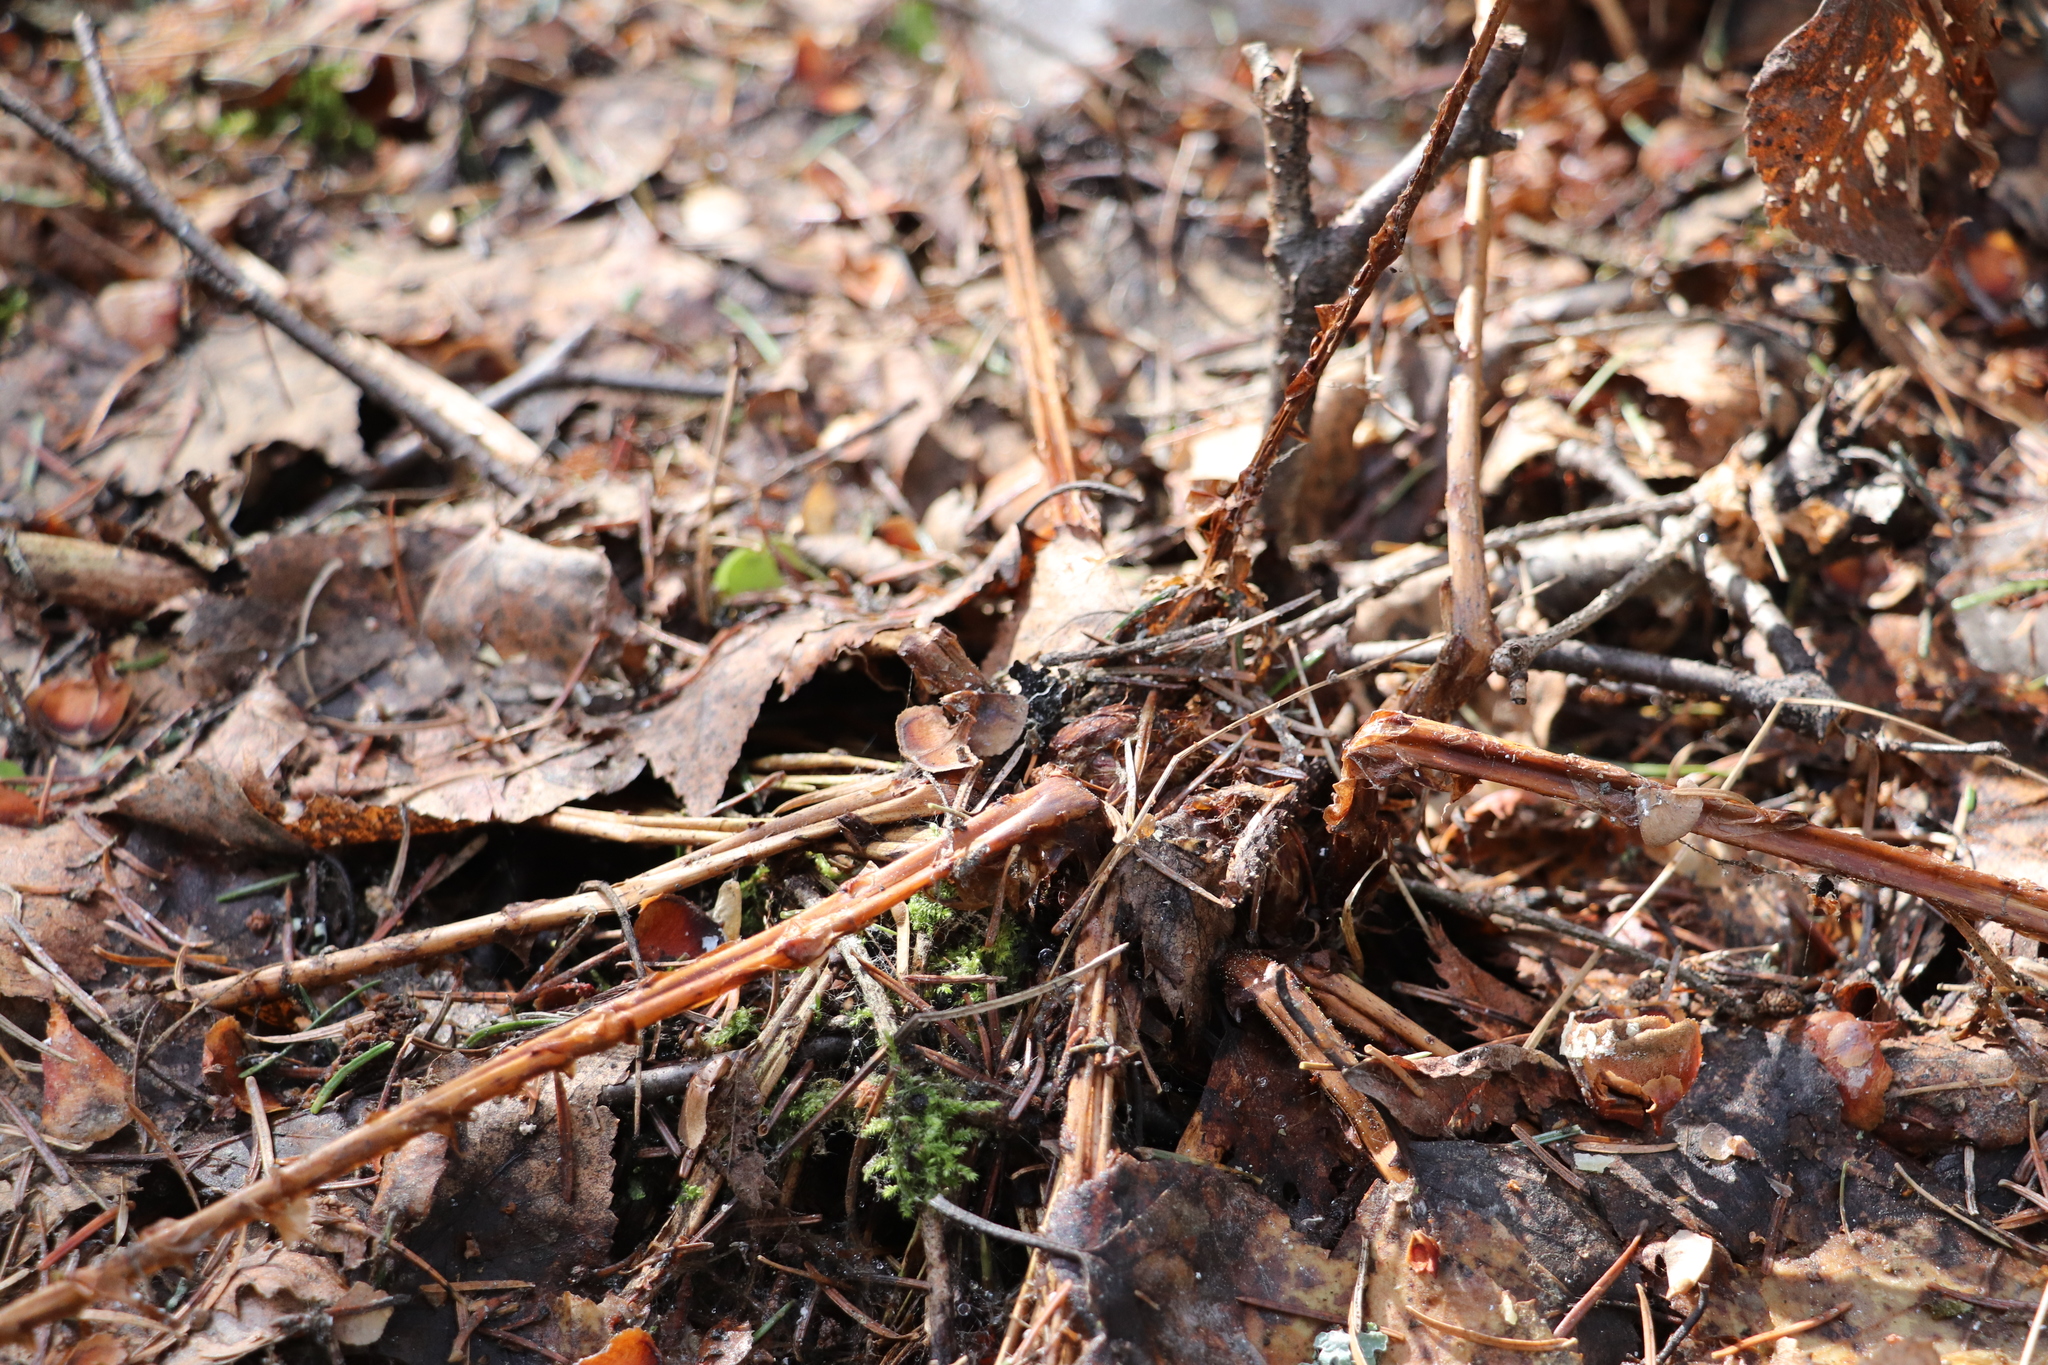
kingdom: Plantae
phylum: Tracheophyta
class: Polypodiopsida
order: Polypodiales
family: Athyriaceae
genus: Athyrium
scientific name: Athyrium filix-femina
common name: Lady fern
